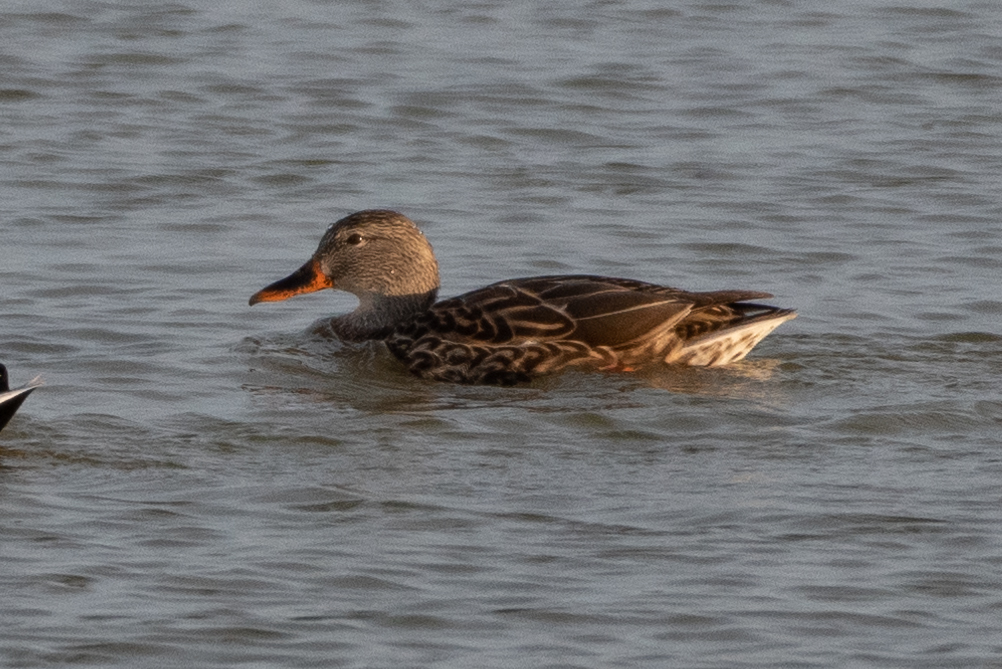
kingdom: Animalia
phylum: Chordata
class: Aves
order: Anseriformes
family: Anatidae
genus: Anas
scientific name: Anas platyrhynchos
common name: Mallard
